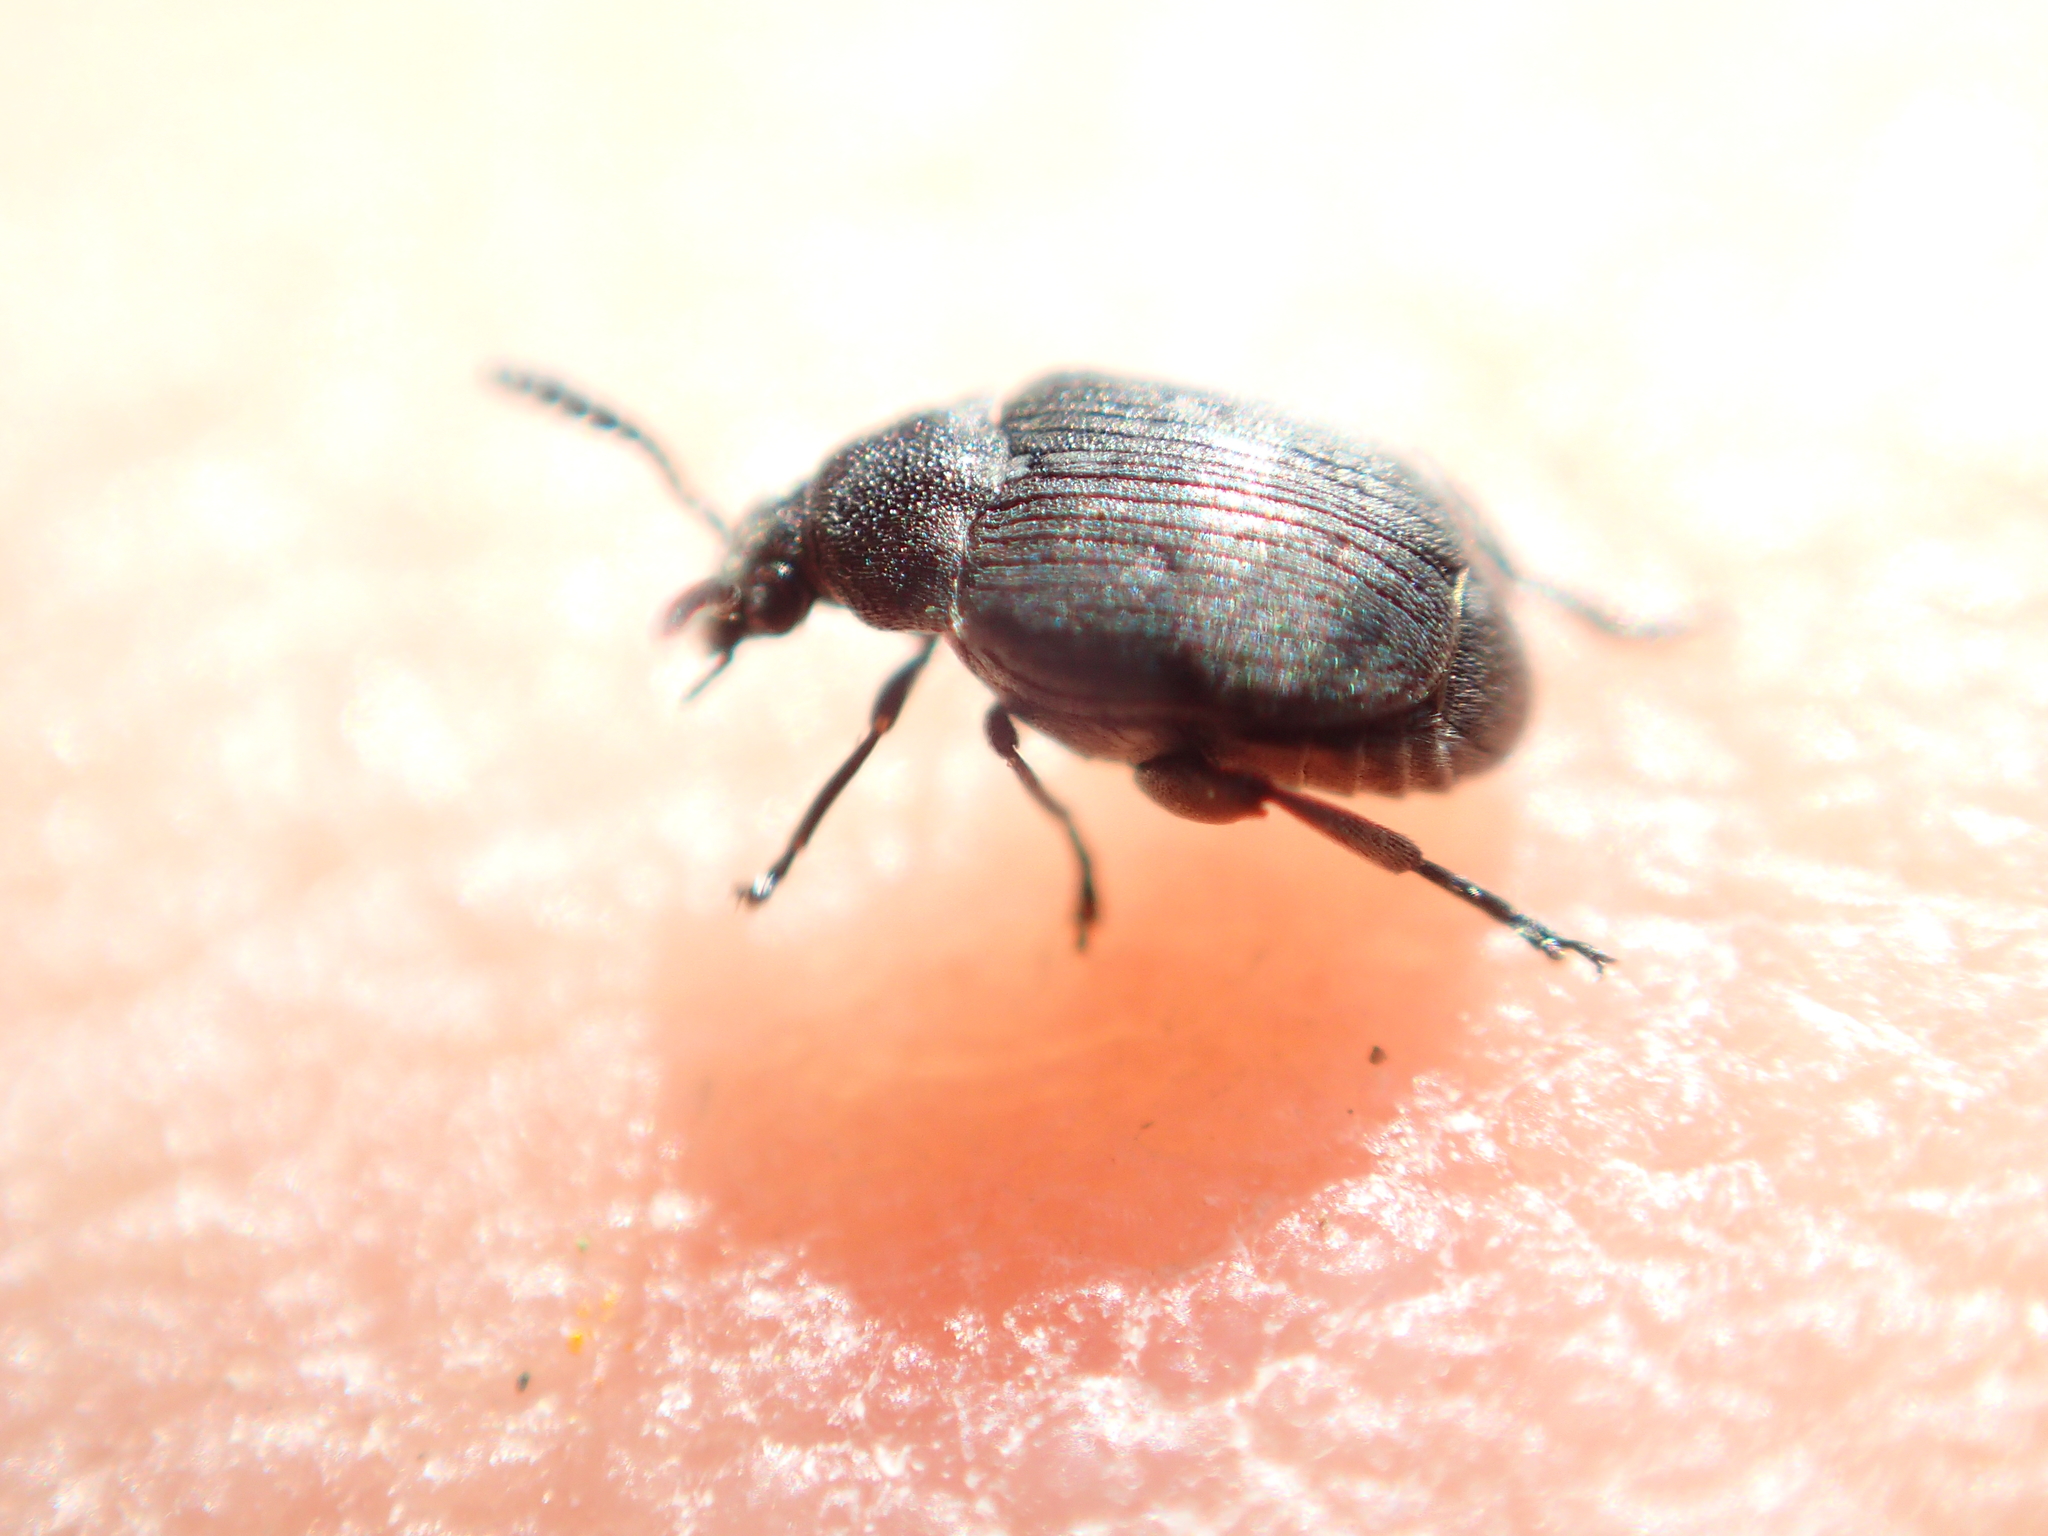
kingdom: Animalia
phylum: Arthropoda
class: Insecta
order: Coleoptera
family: Chrysomelidae
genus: Bruchidius
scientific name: Bruchidius villosus
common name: Scotch broom bruchid
